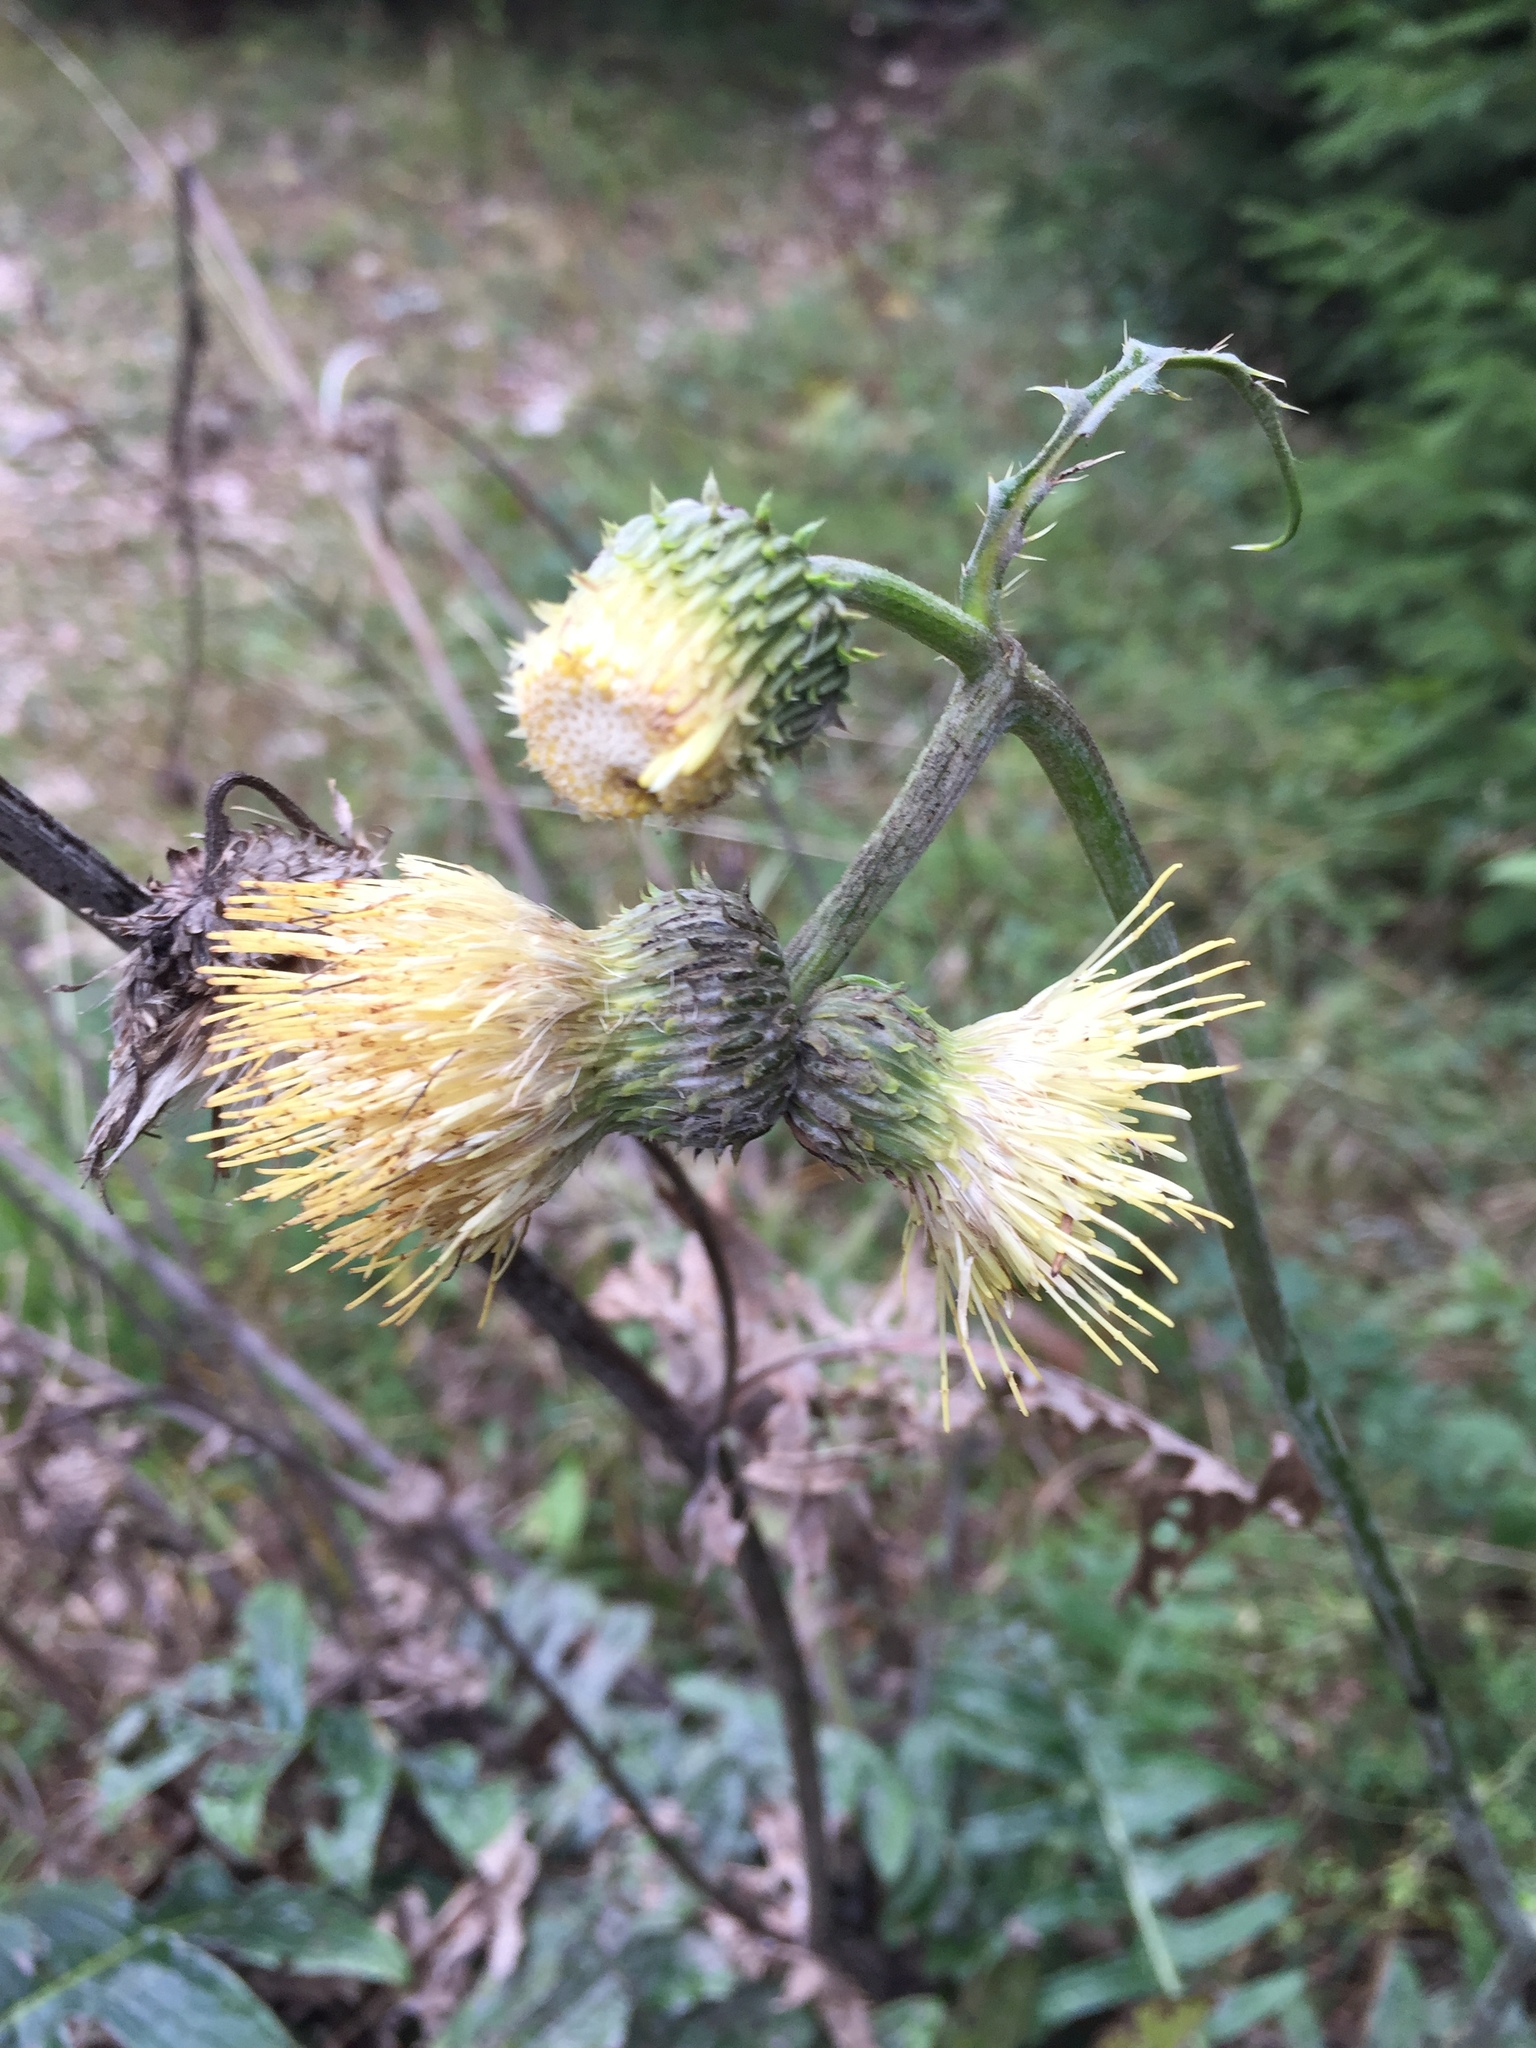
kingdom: Plantae
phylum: Tracheophyta
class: Magnoliopsida
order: Asterales
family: Asteraceae
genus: Cirsium
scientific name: Cirsium erisithales
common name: Yellow thistle
